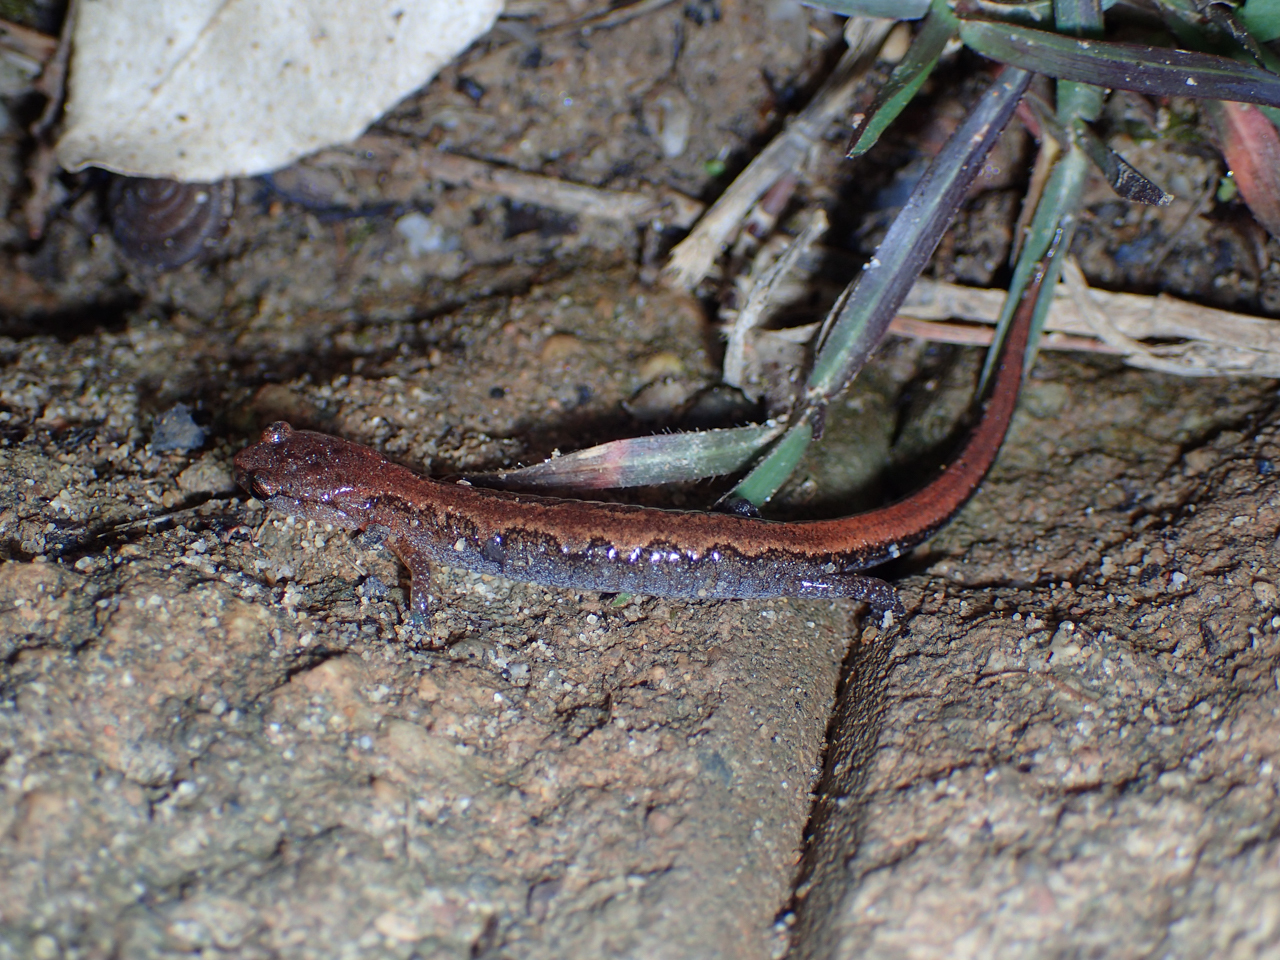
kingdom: Animalia
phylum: Chordata
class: Amphibia
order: Caudata
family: Plethodontidae
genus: Plethodon
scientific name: Plethodon ventralis
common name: Southern zigzag salamander
